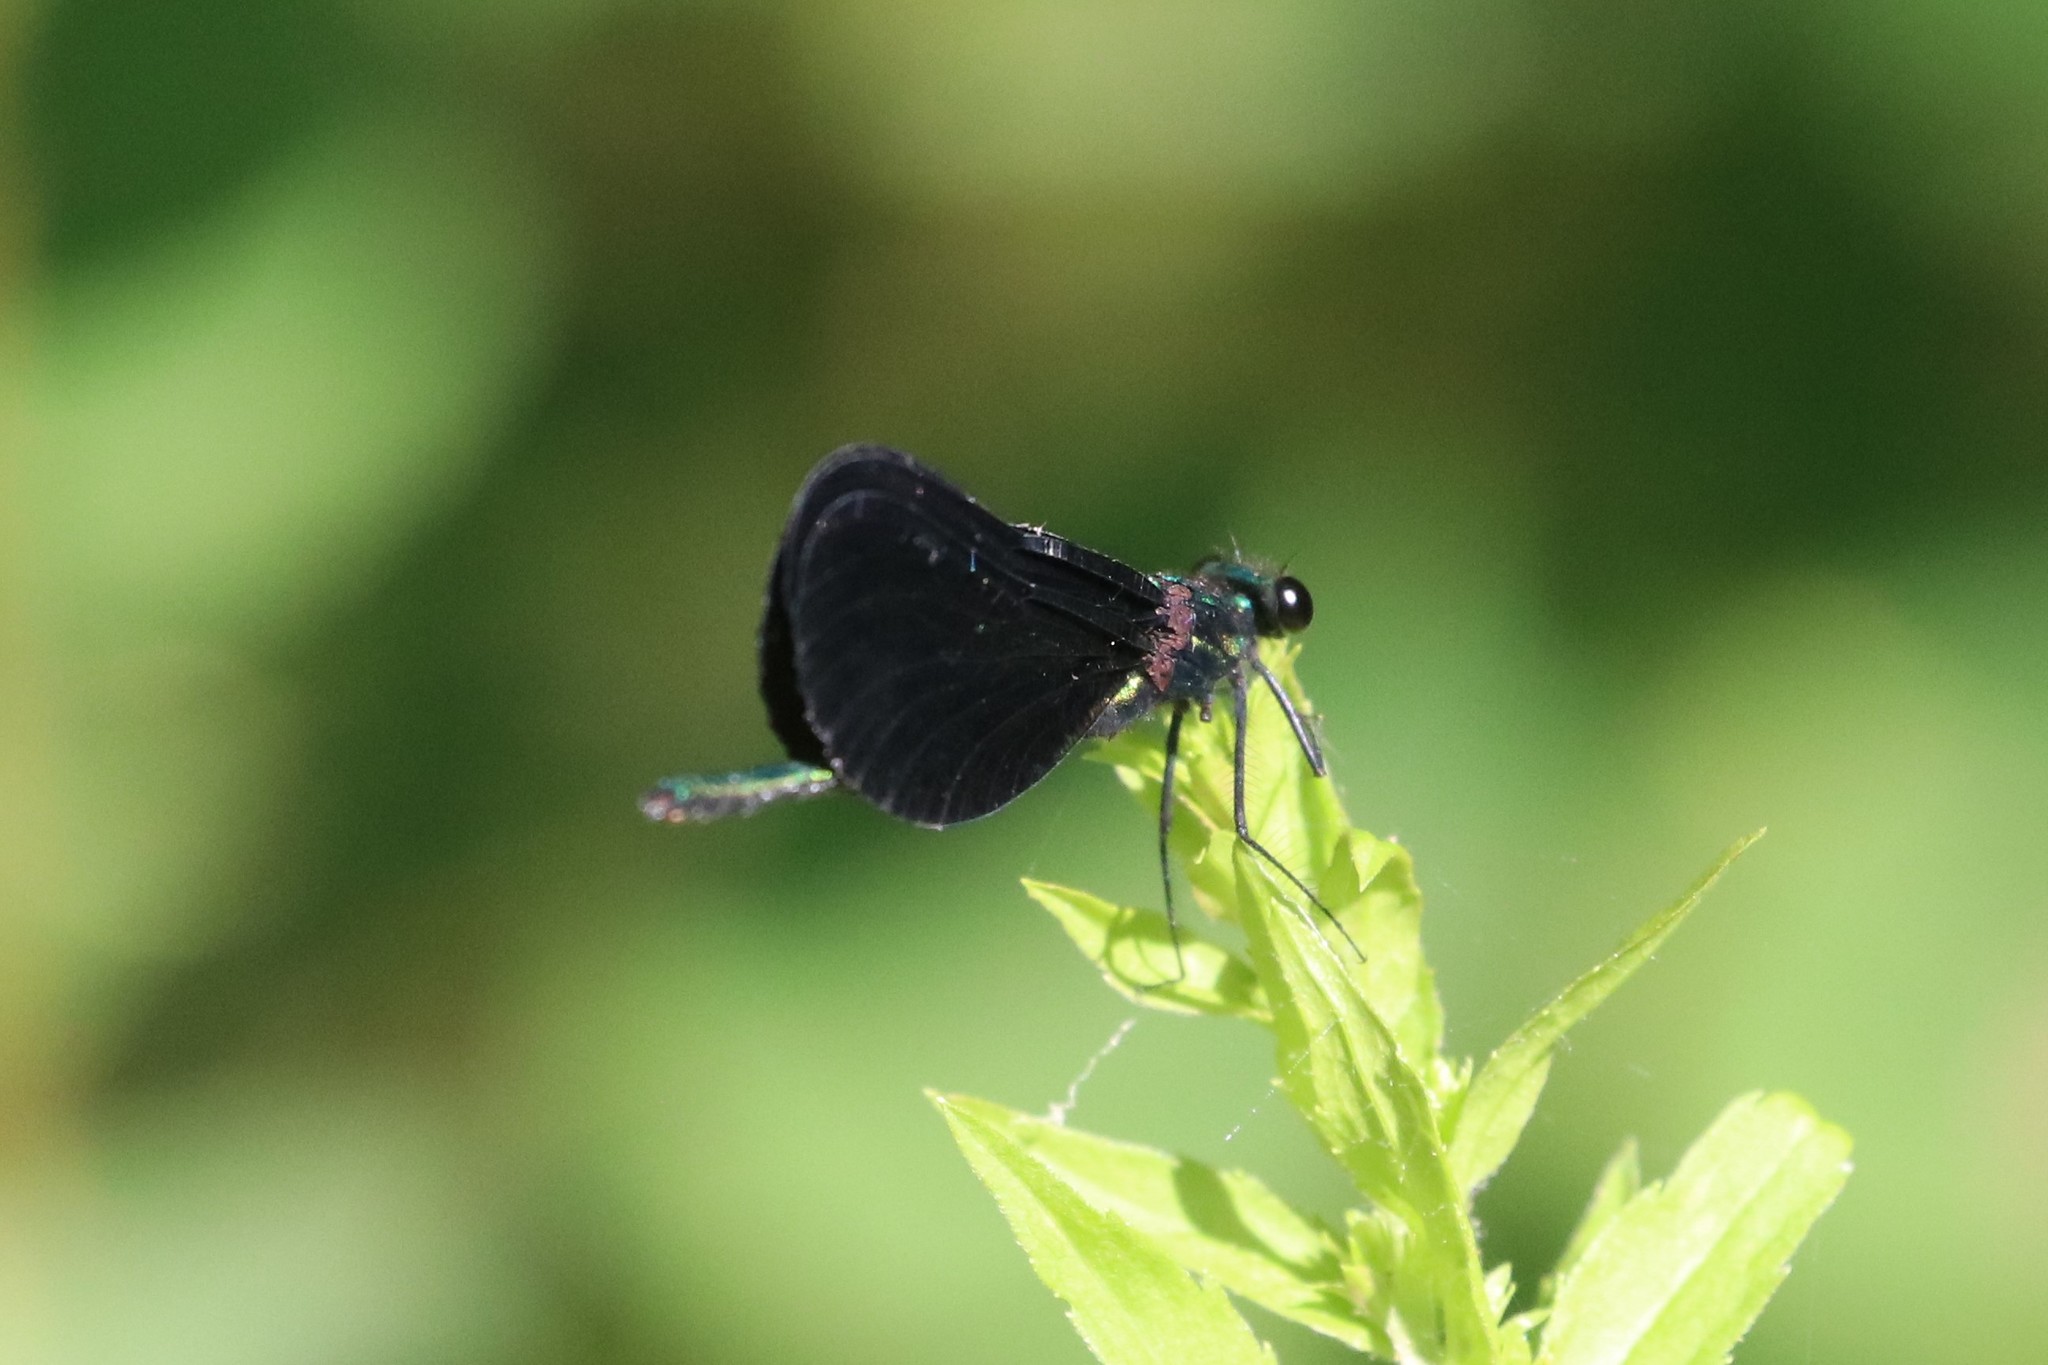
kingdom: Animalia
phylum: Arthropoda
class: Insecta
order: Odonata
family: Calopterygidae
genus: Calopteryx
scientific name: Calopteryx maculata
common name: Ebony jewelwing
